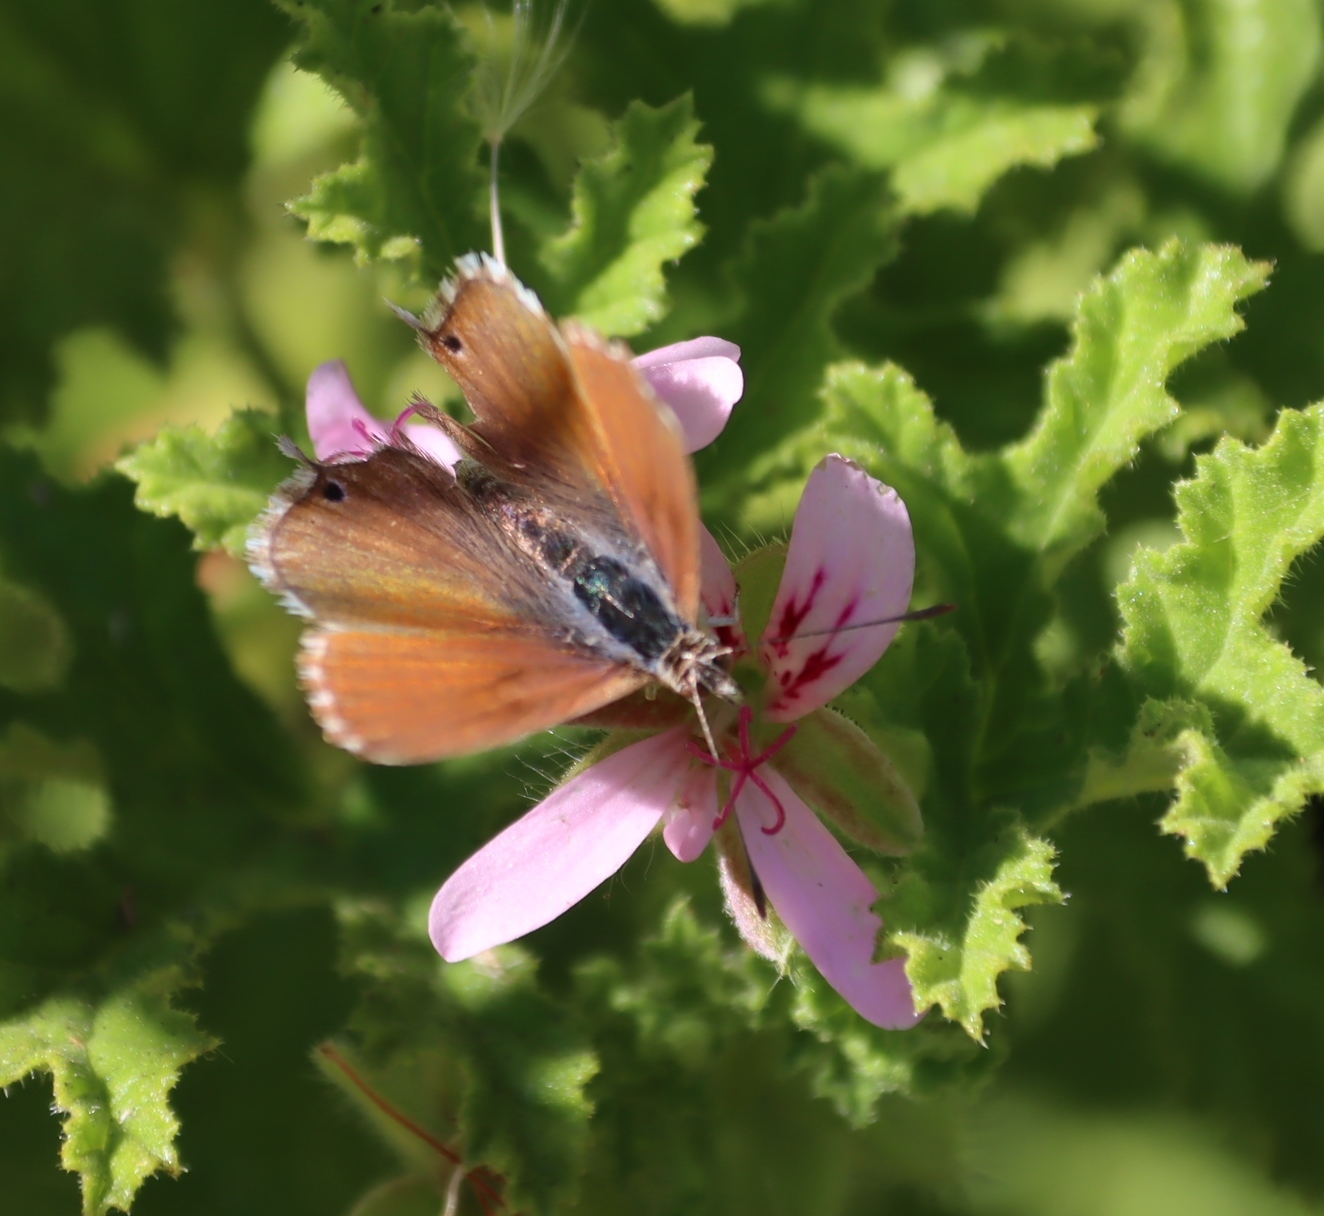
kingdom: Animalia
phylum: Arthropoda
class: Insecta
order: Lepidoptera
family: Lycaenidae
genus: Cacyreus
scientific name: Cacyreus marshalli
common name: Geranium bronze
